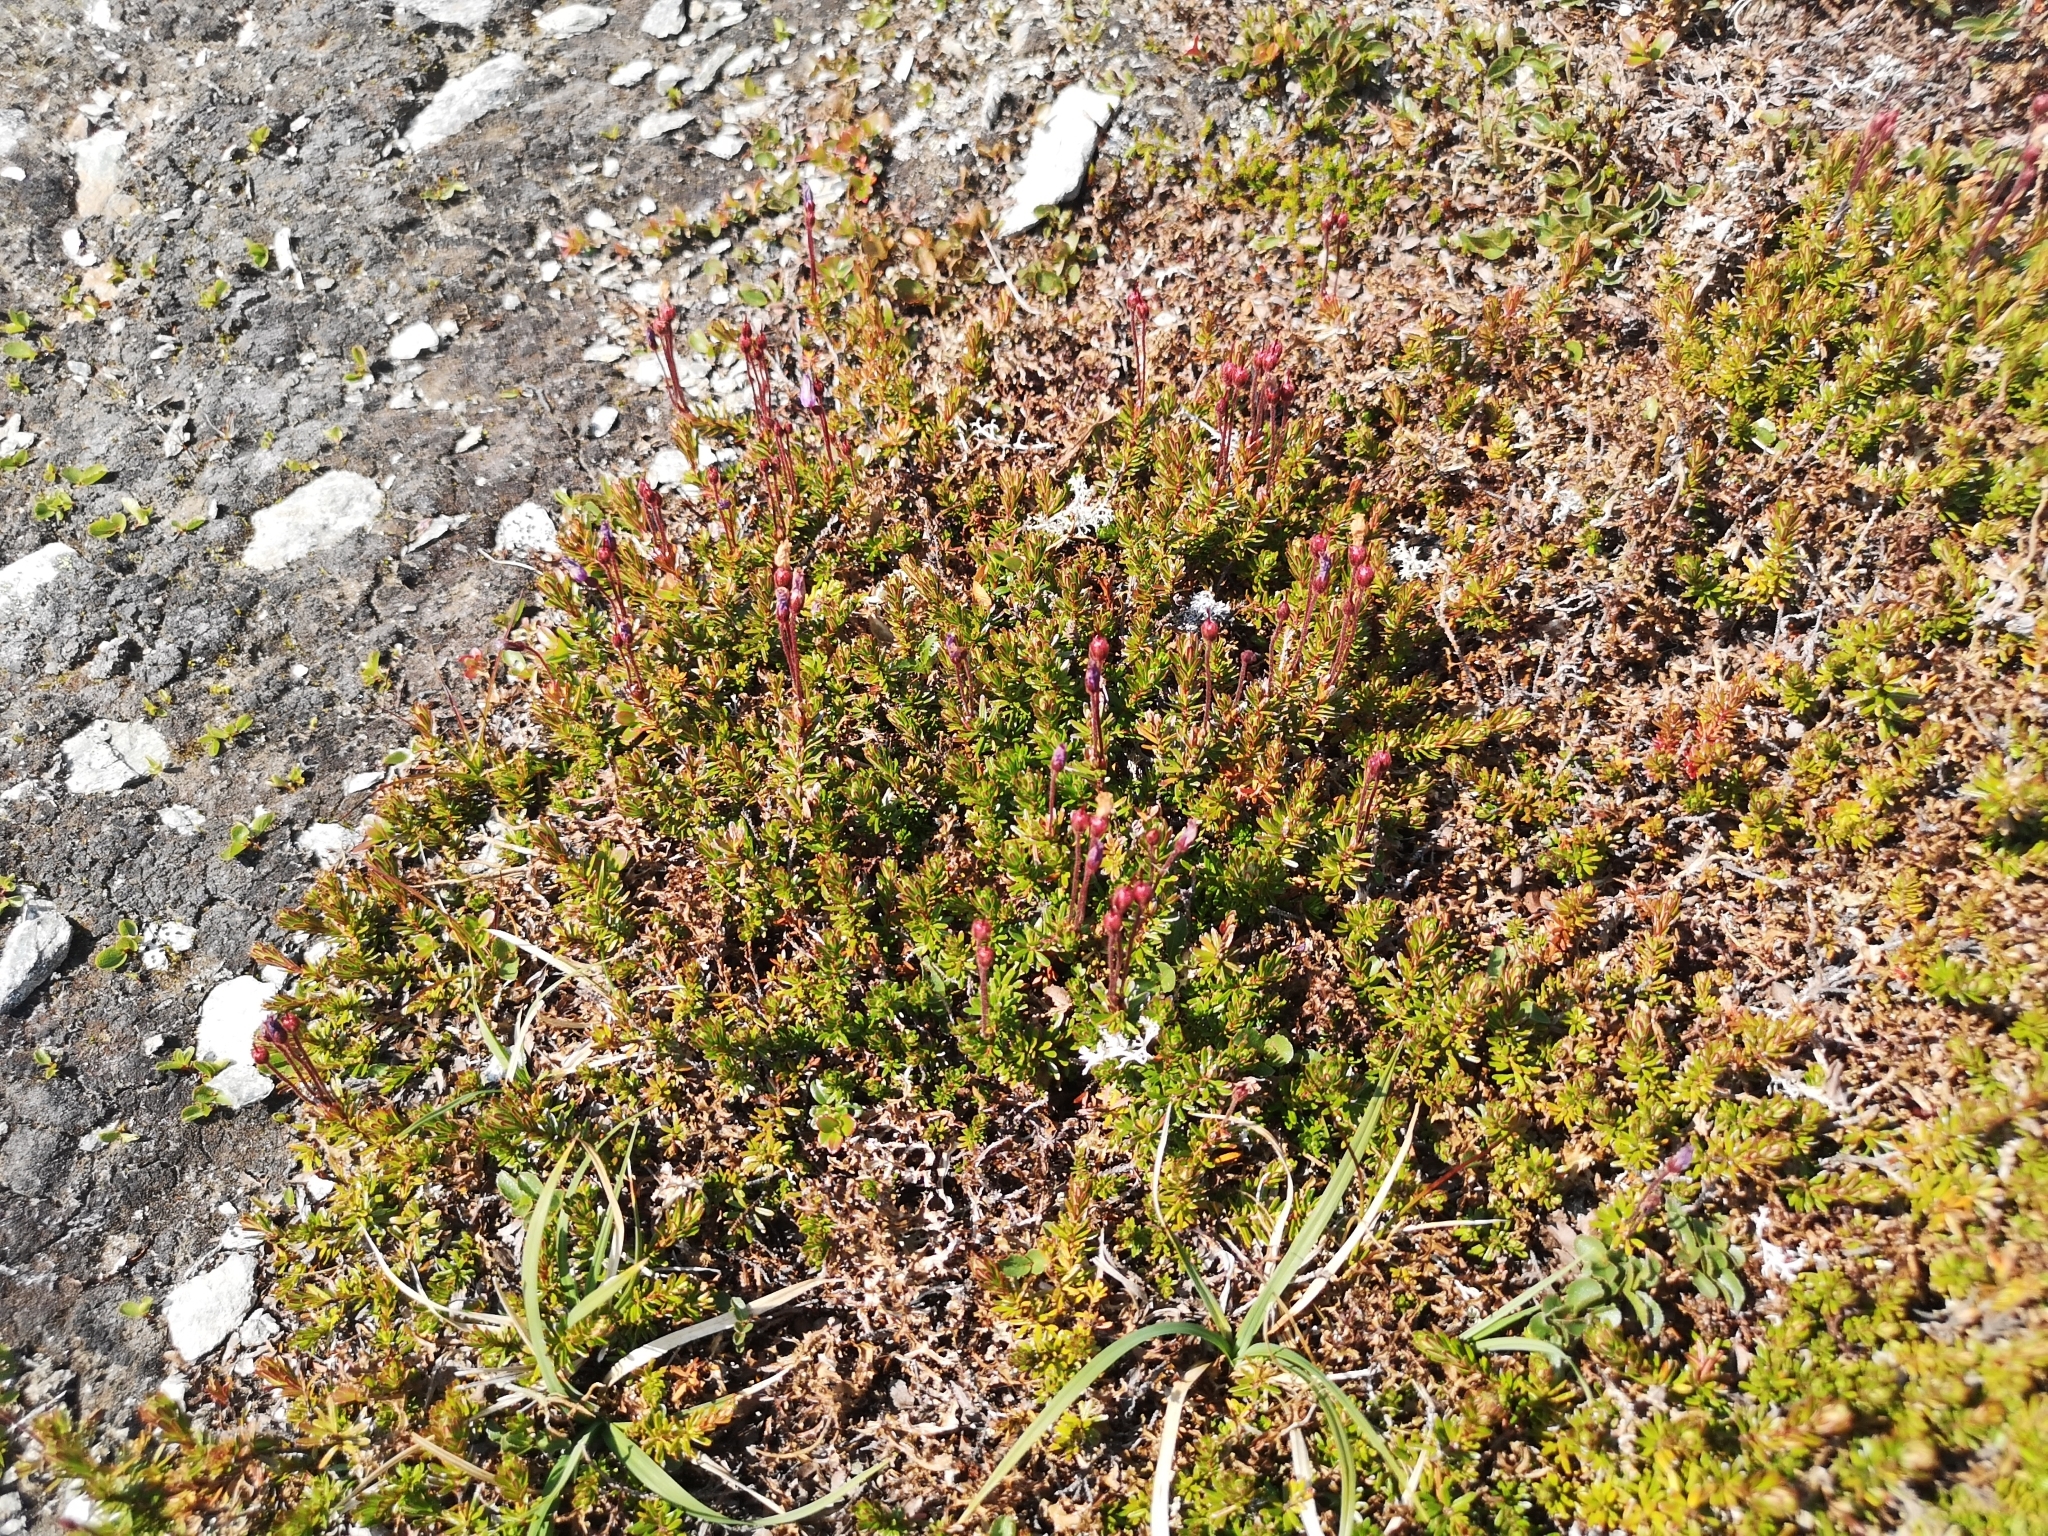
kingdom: Plantae
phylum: Tracheophyta
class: Magnoliopsida
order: Ericales
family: Ericaceae
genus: Phyllodoce
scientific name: Phyllodoce caerulea
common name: Blue heath
